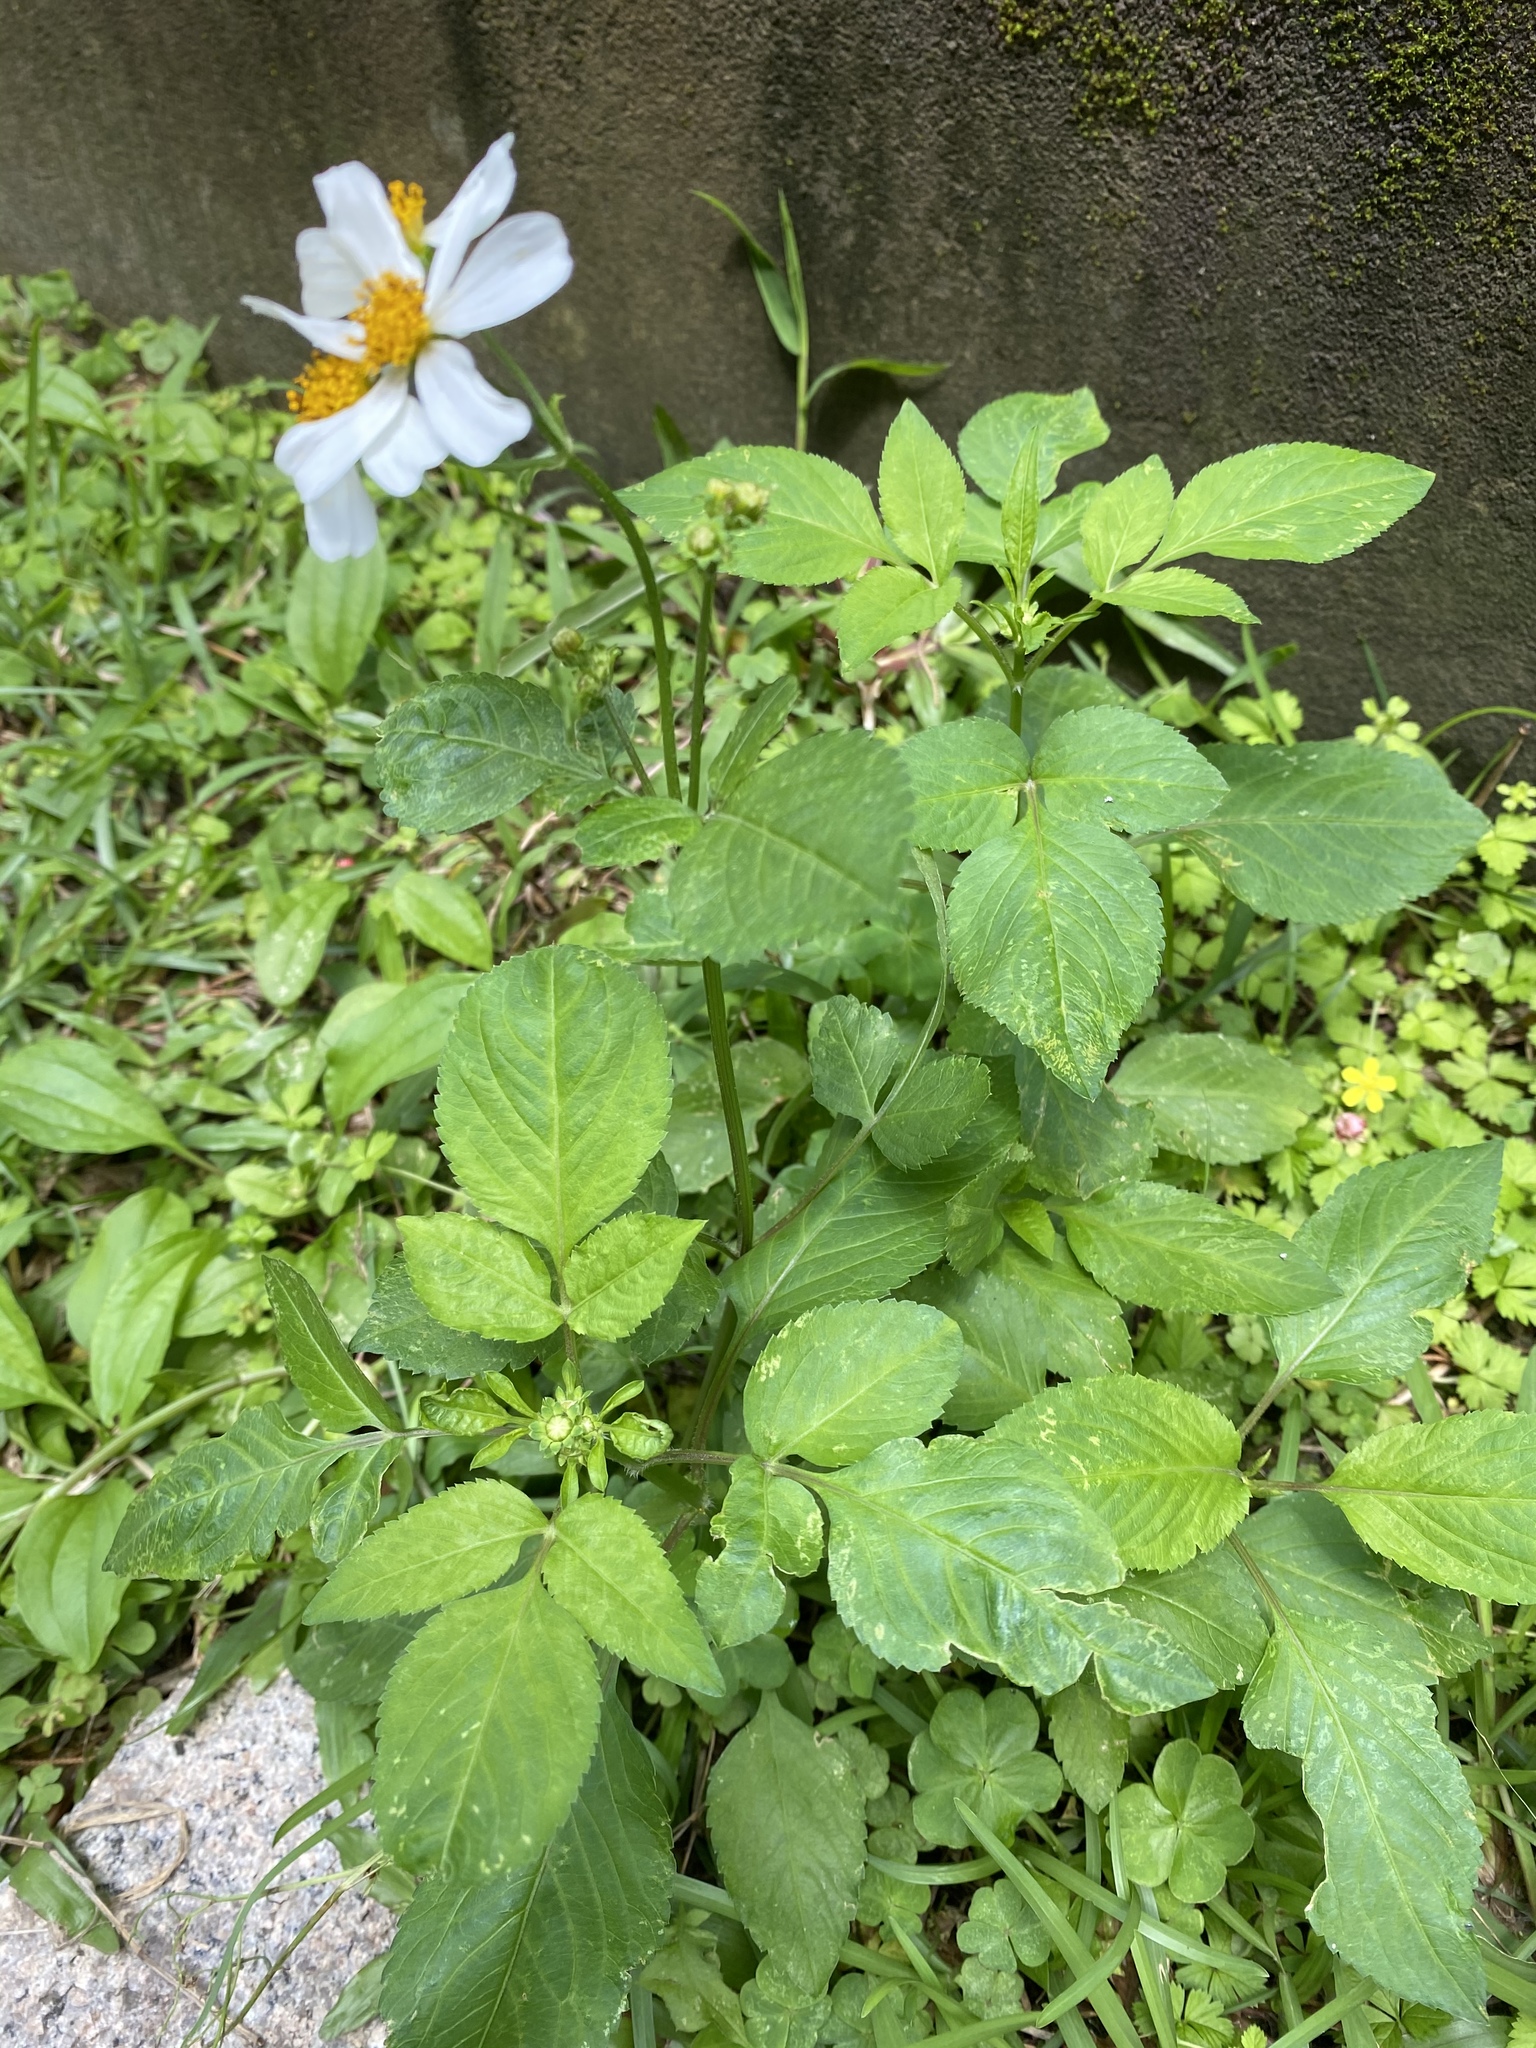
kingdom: Plantae
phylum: Tracheophyta
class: Magnoliopsida
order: Asterales
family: Asteraceae
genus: Bidens
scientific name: Bidens alba
